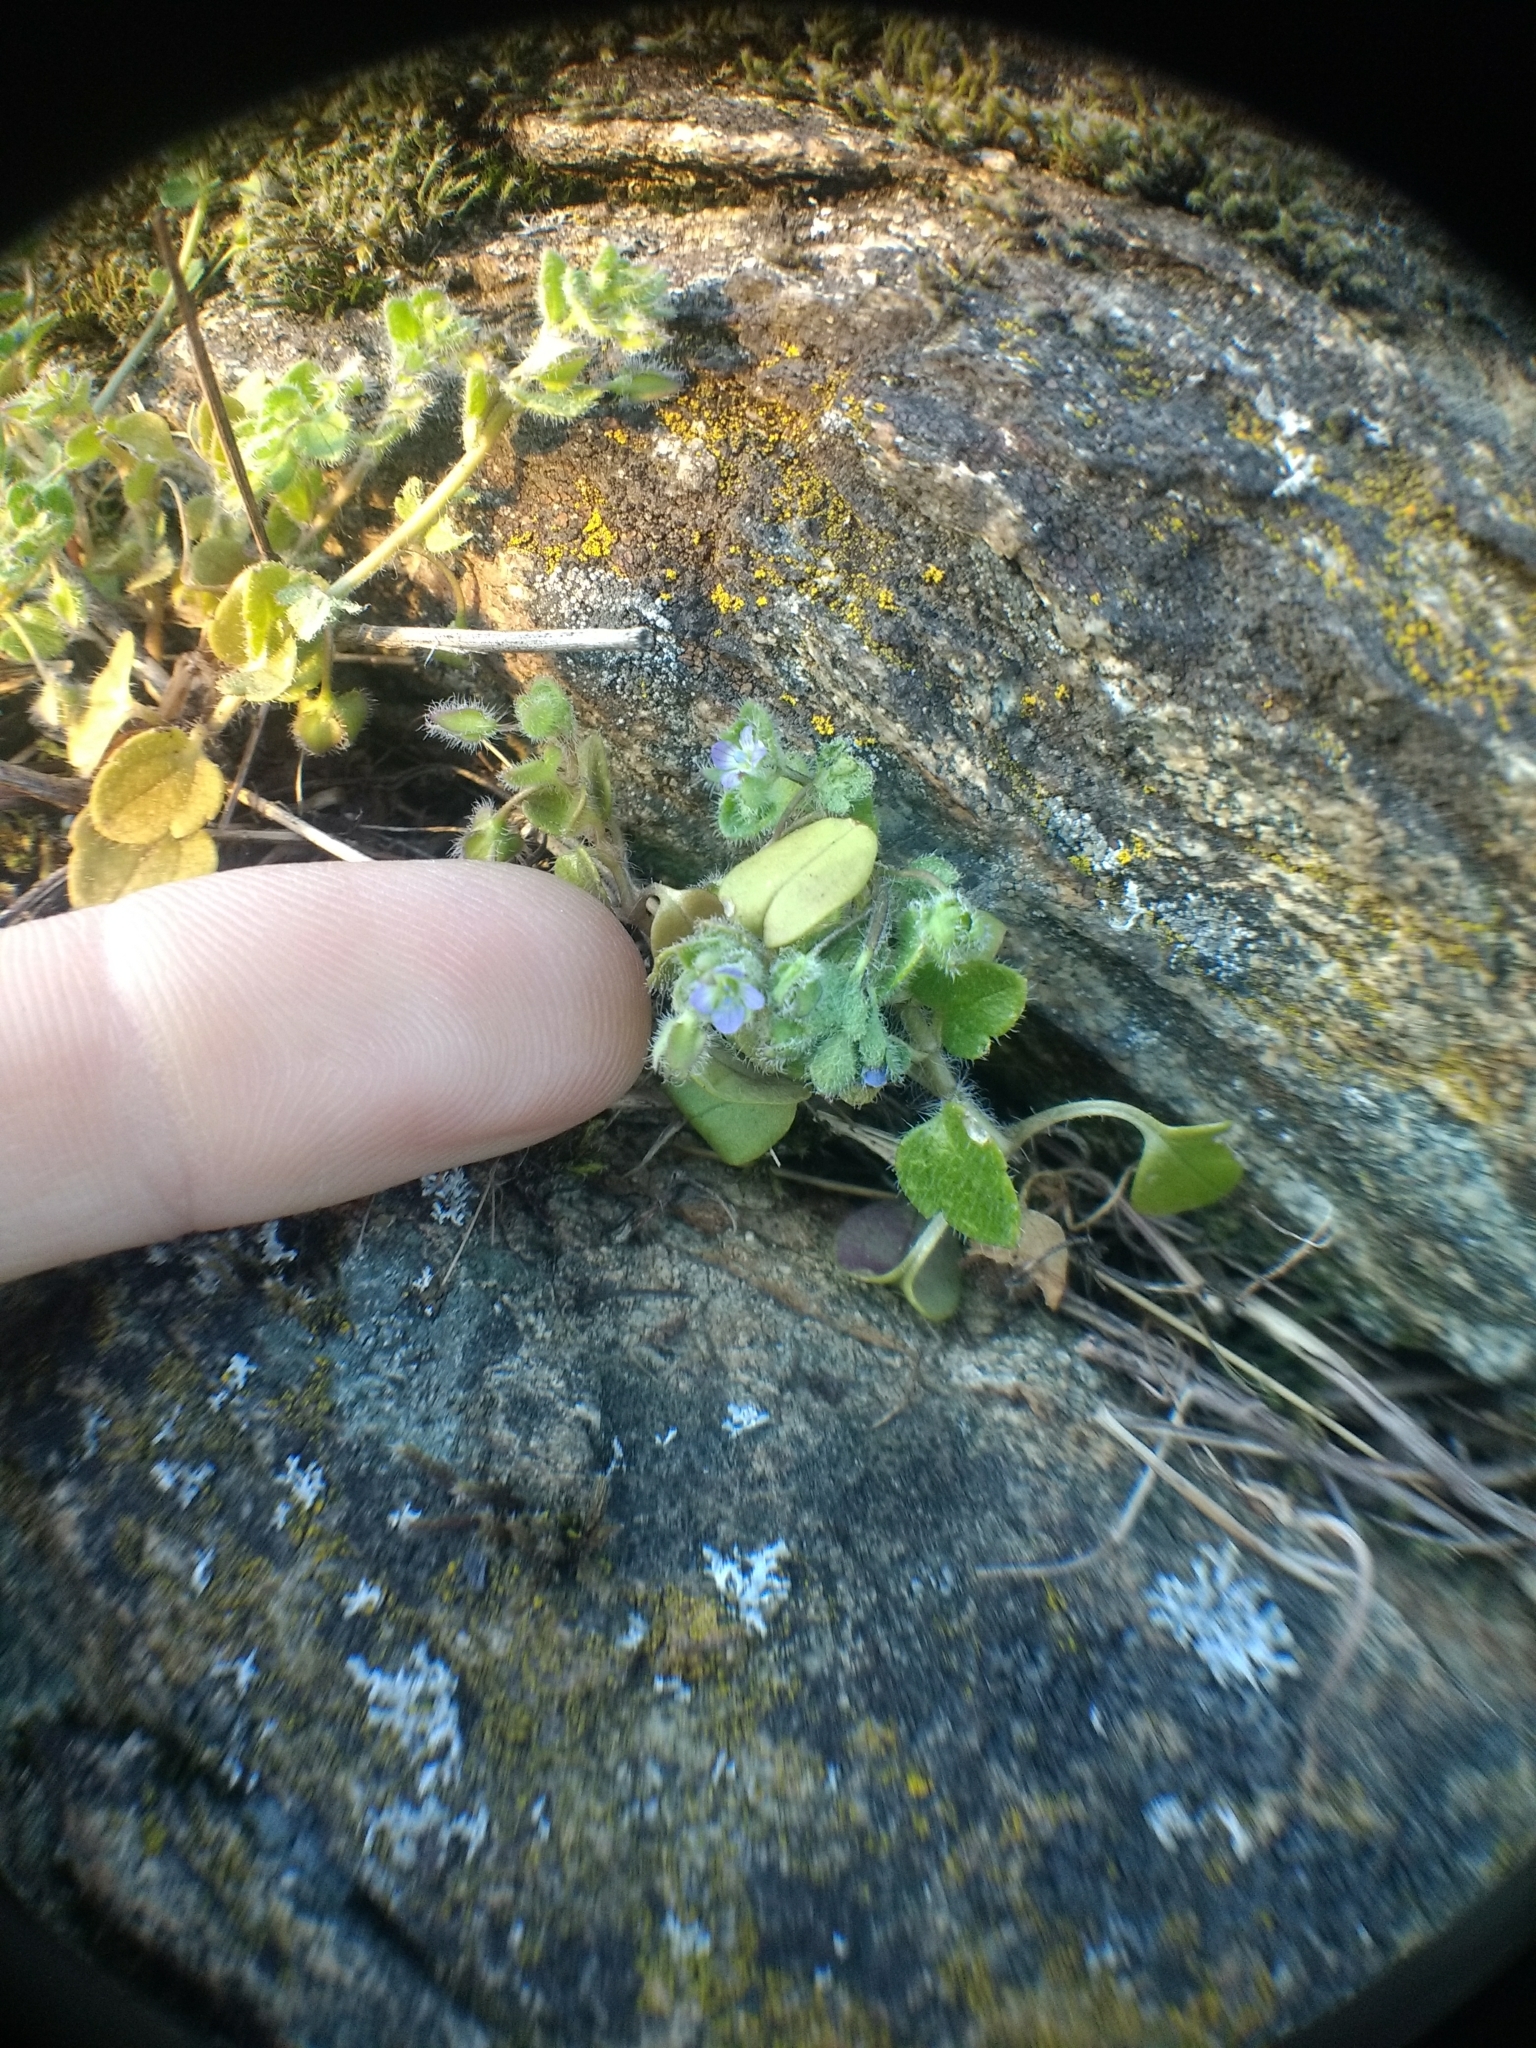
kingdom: Plantae
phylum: Tracheophyta
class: Magnoliopsida
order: Lamiales
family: Plantaginaceae
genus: Veronica
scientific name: Veronica hederifolia
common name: Ivy-leaved speedwell
